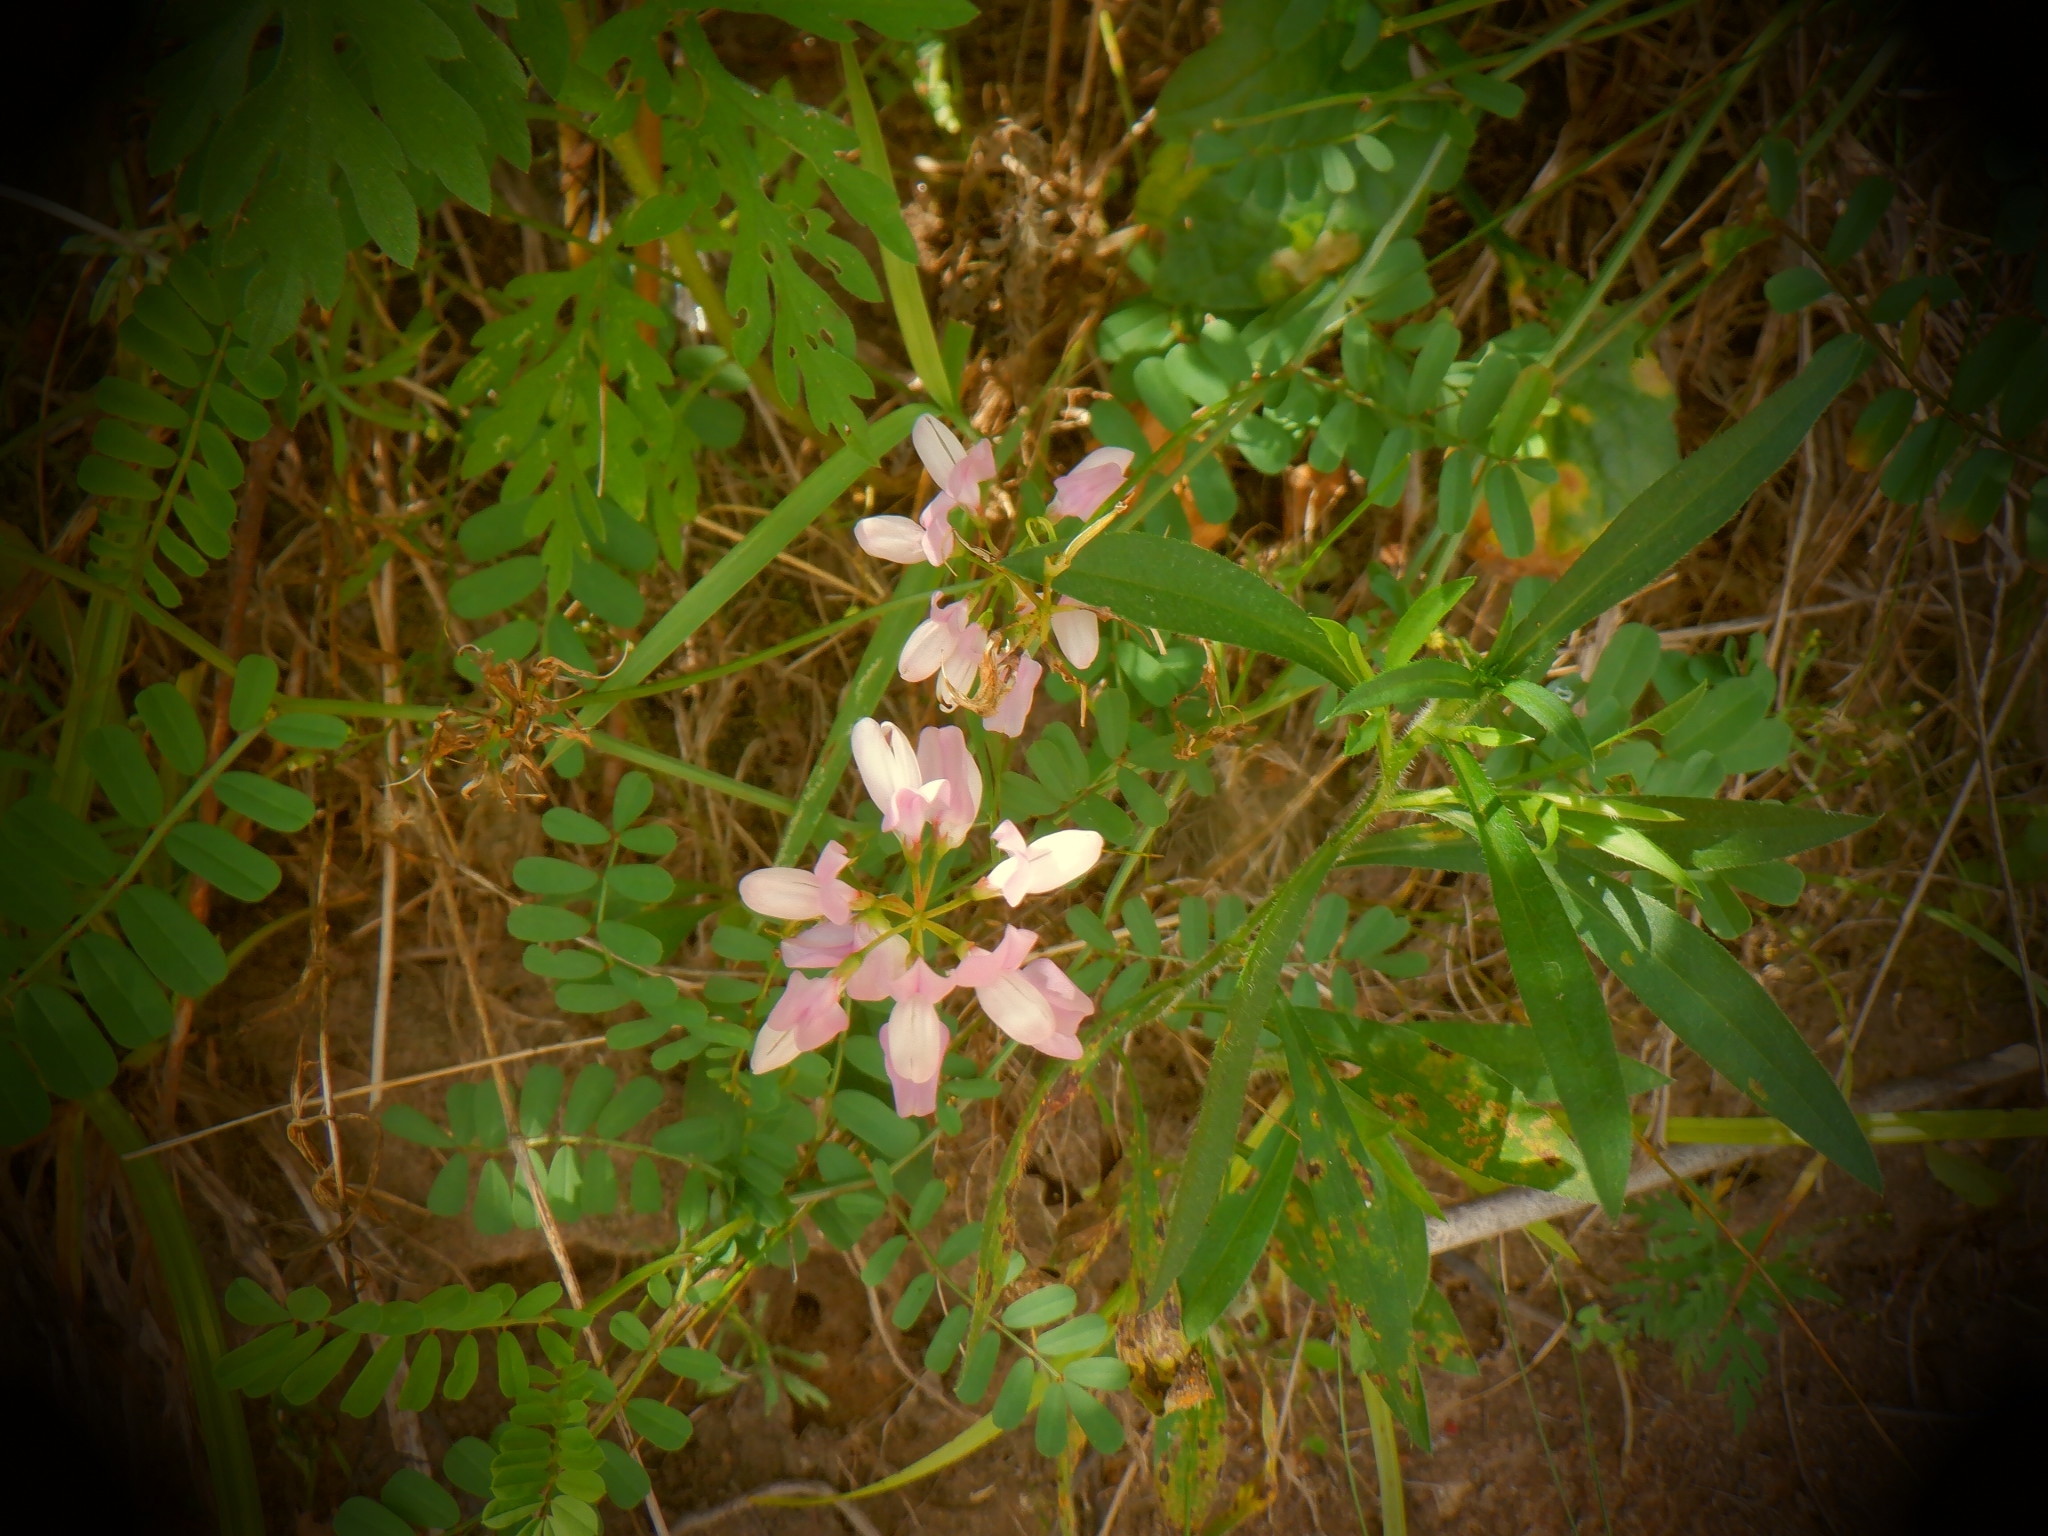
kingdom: Plantae
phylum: Tracheophyta
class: Magnoliopsida
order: Fabales
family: Fabaceae
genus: Coronilla
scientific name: Coronilla varia
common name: Crownvetch
